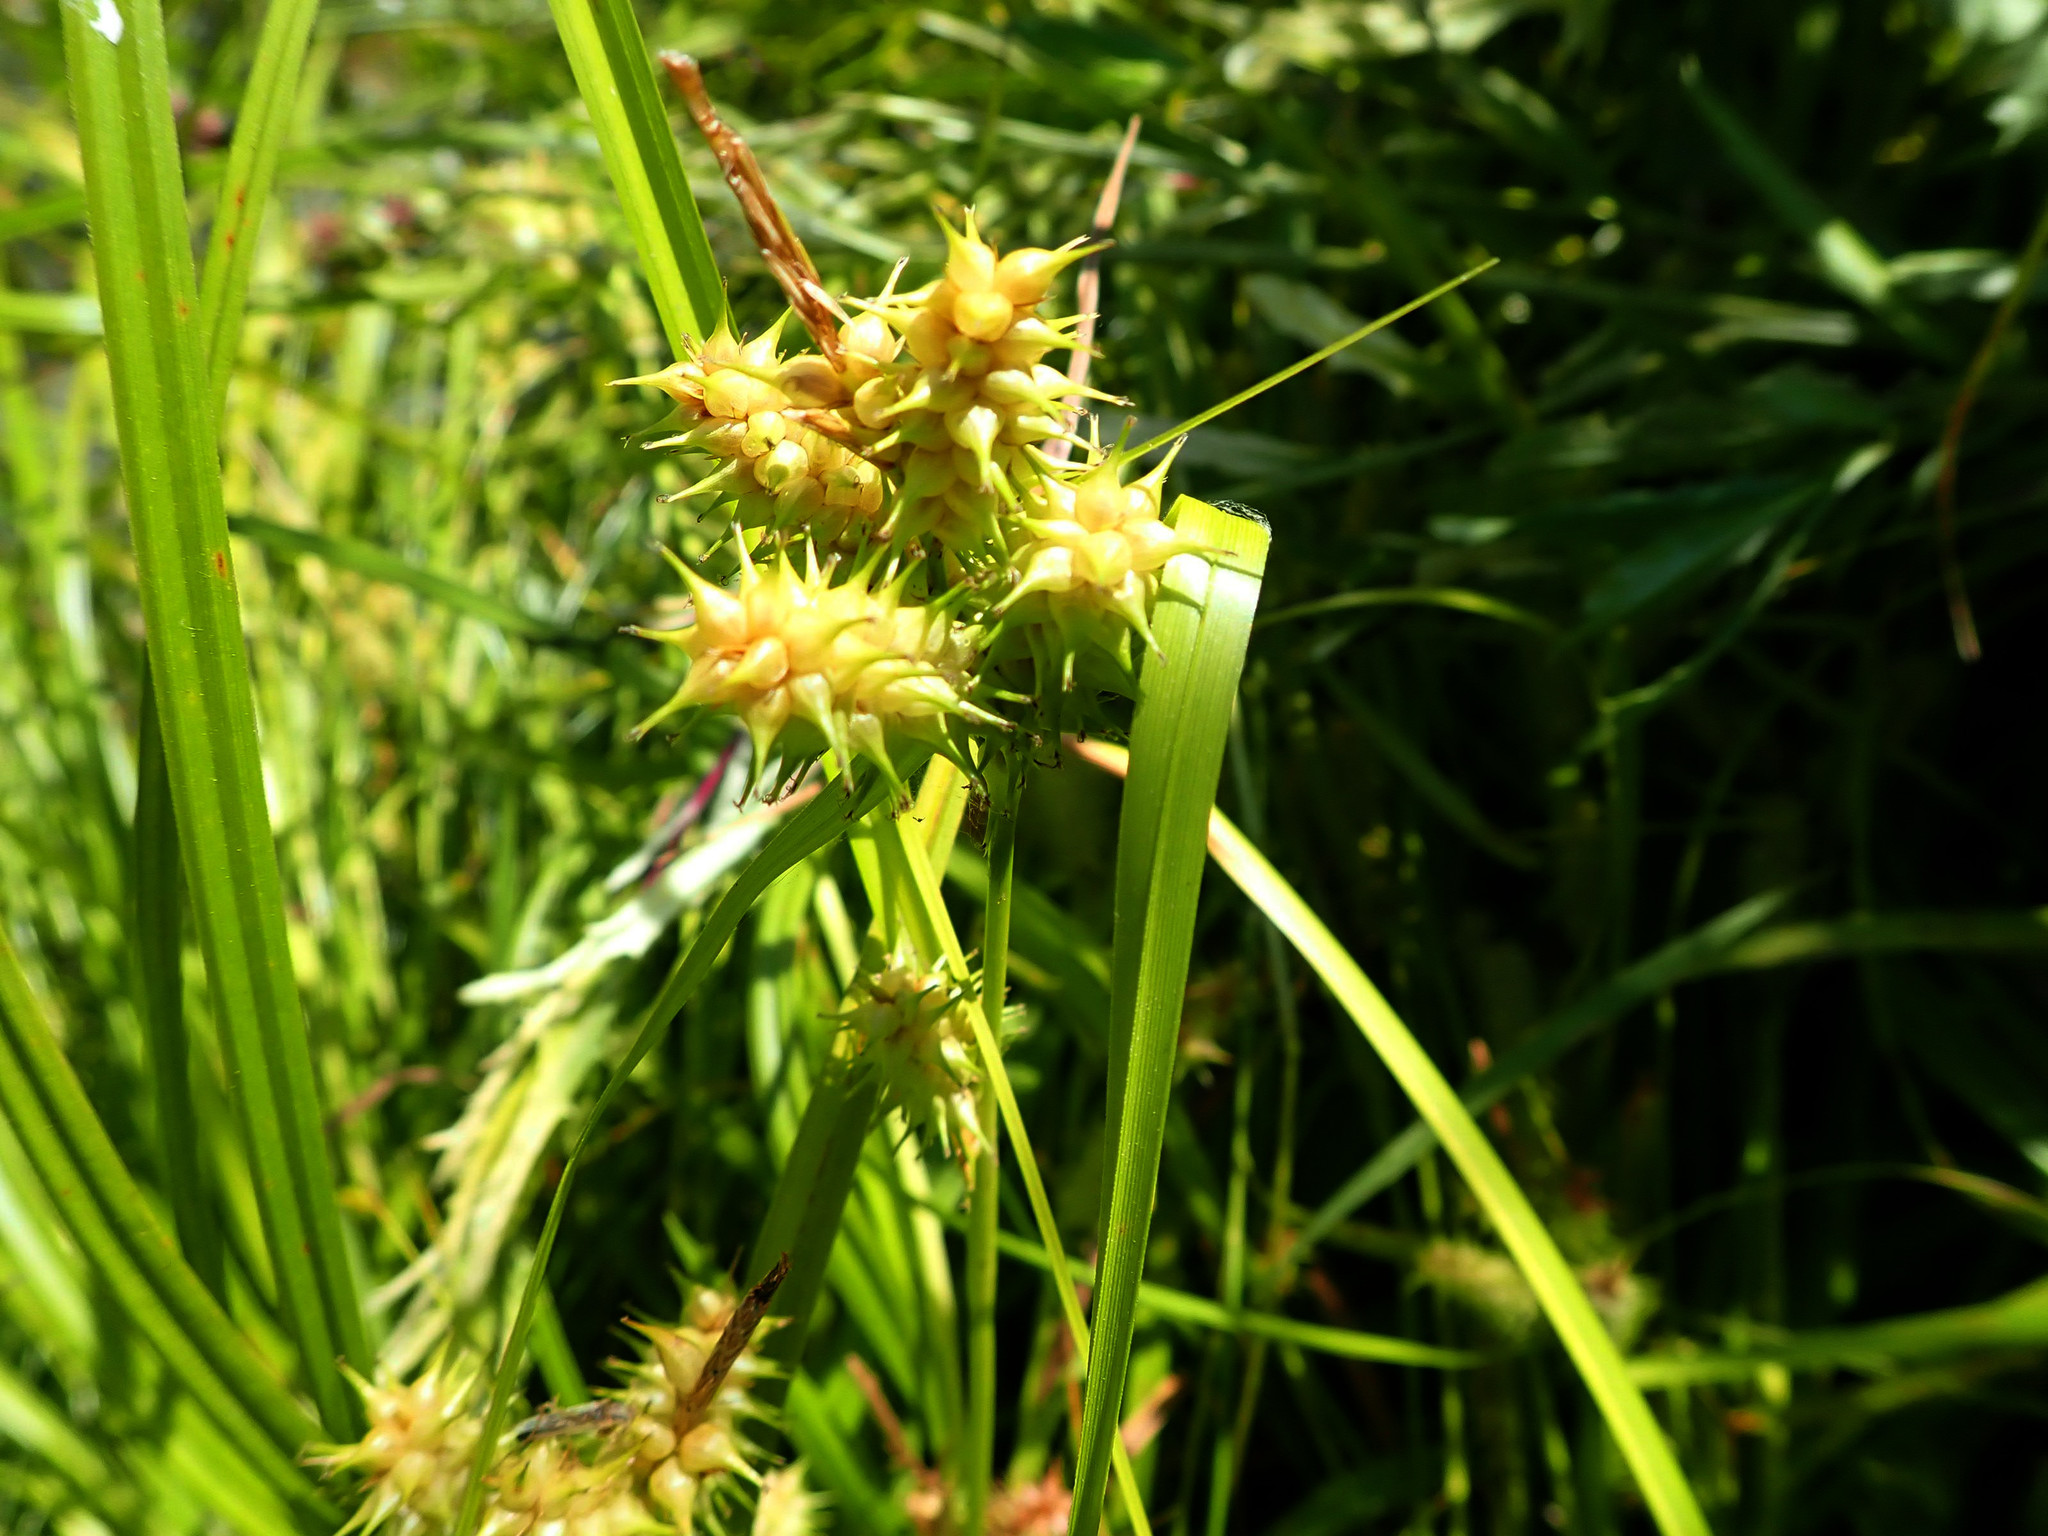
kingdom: Plantae
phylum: Tracheophyta
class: Liliopsida
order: Poales
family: Cyperaceae
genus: Carex
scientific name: Carex retrorsa
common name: Knot-sheath sedge
